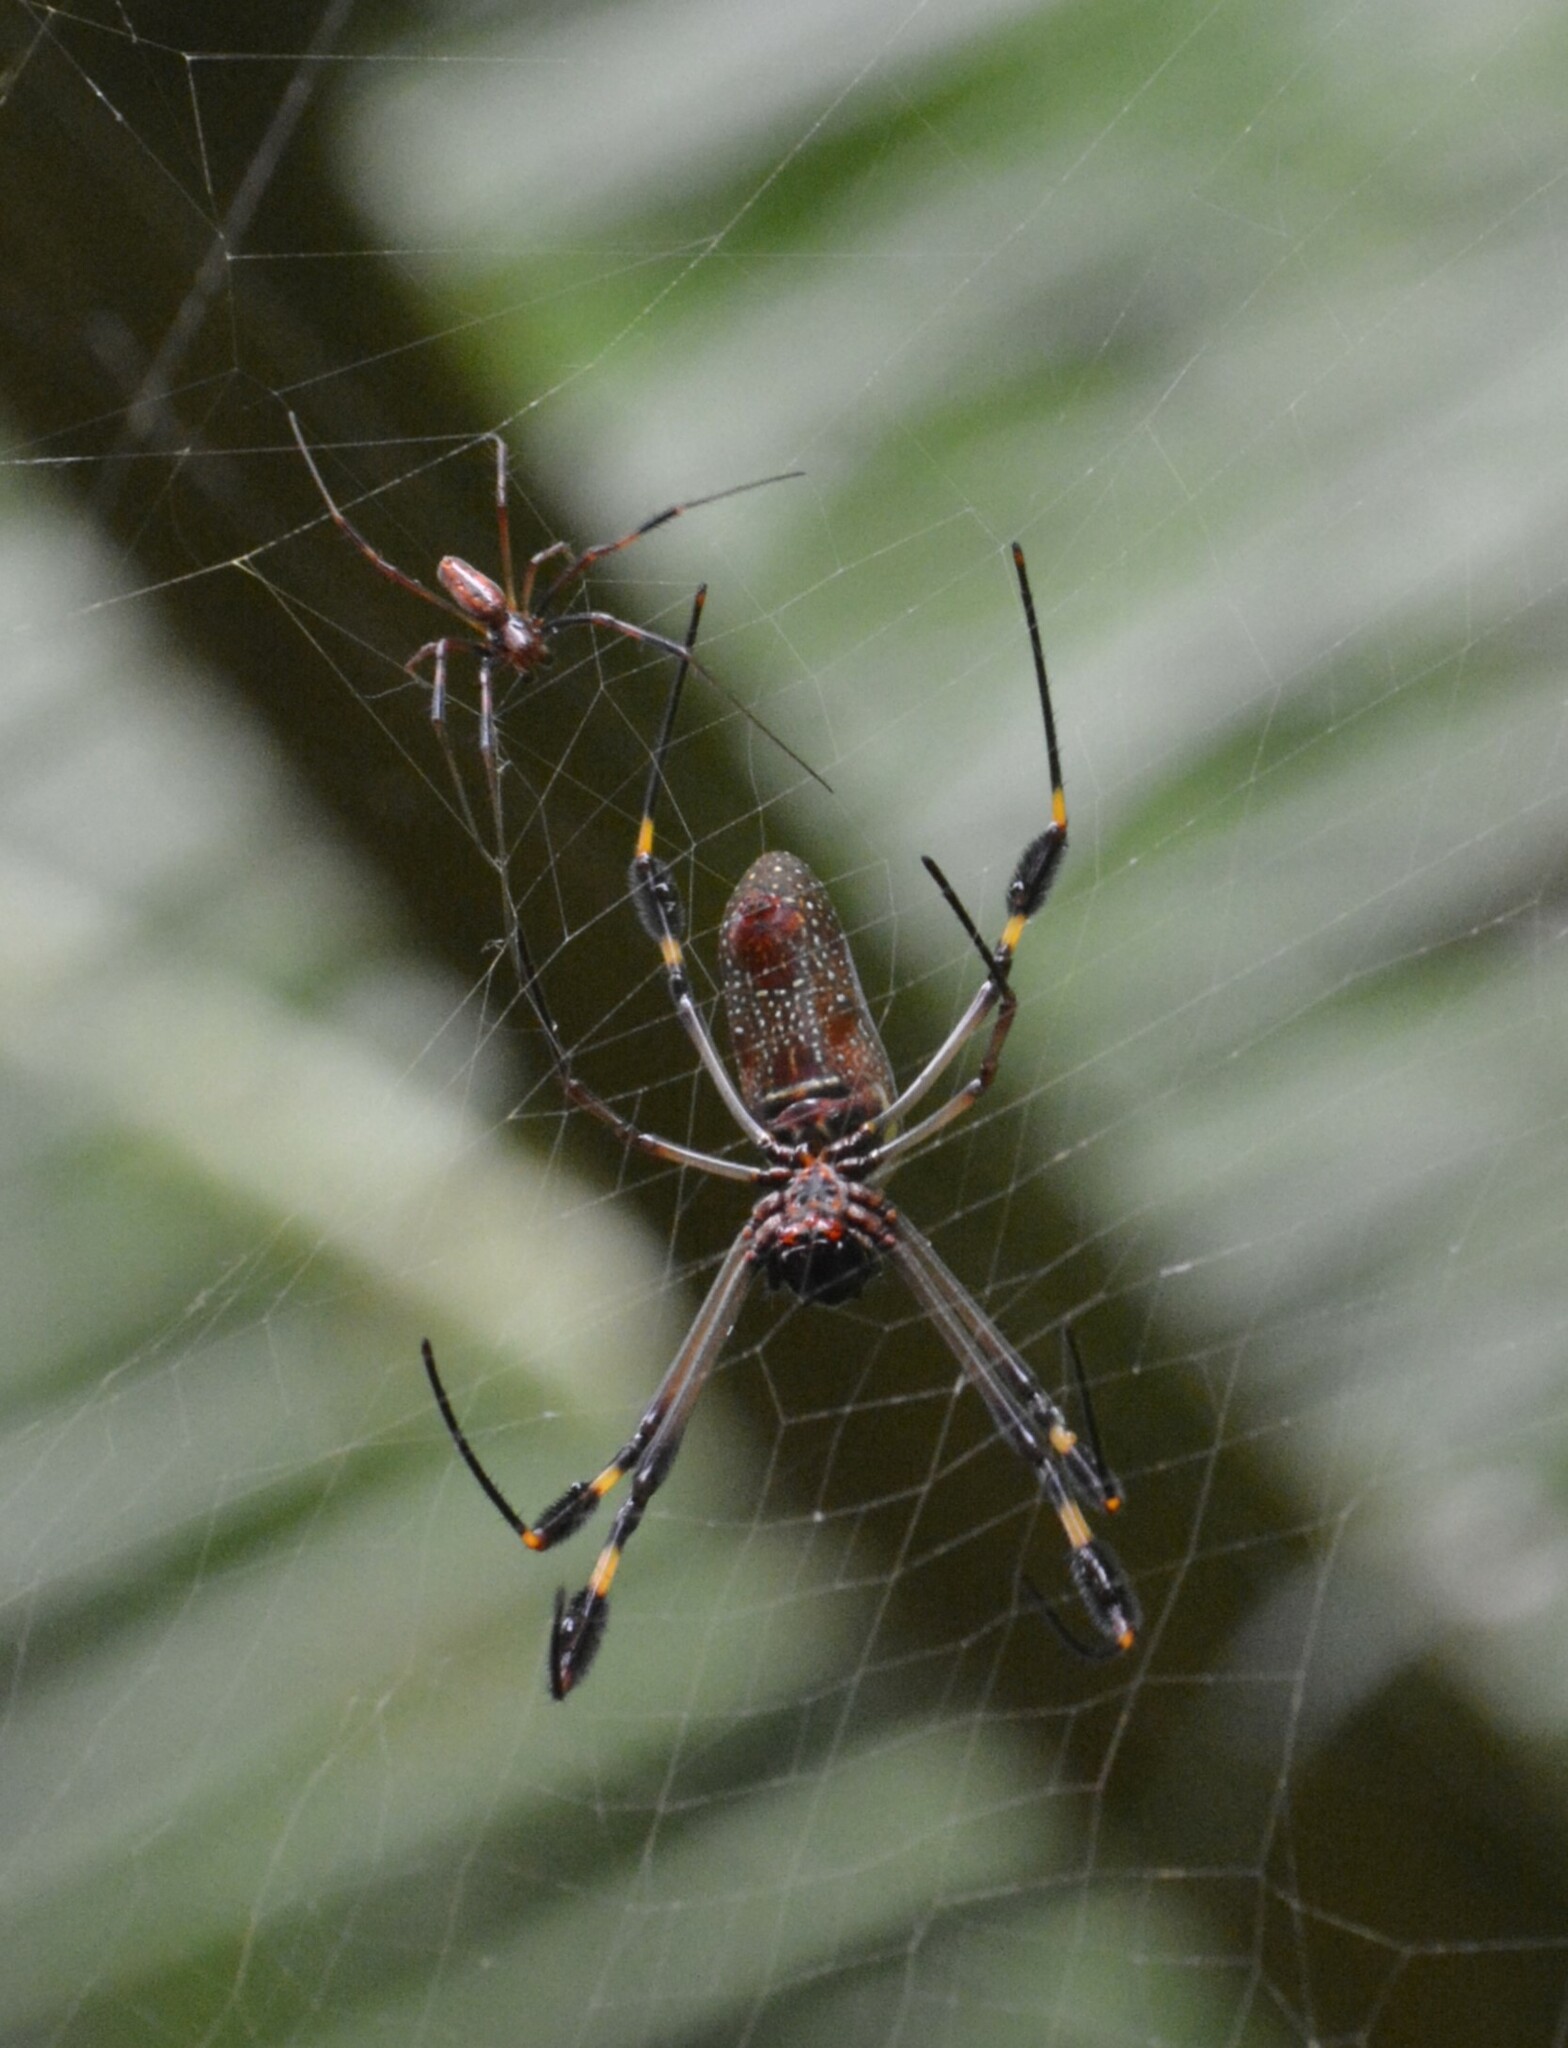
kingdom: Animalia
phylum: Arthropoda
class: Arachnida
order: Araneae
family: Araneidae
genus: Trichonephila
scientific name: Trichonephila clavipes
